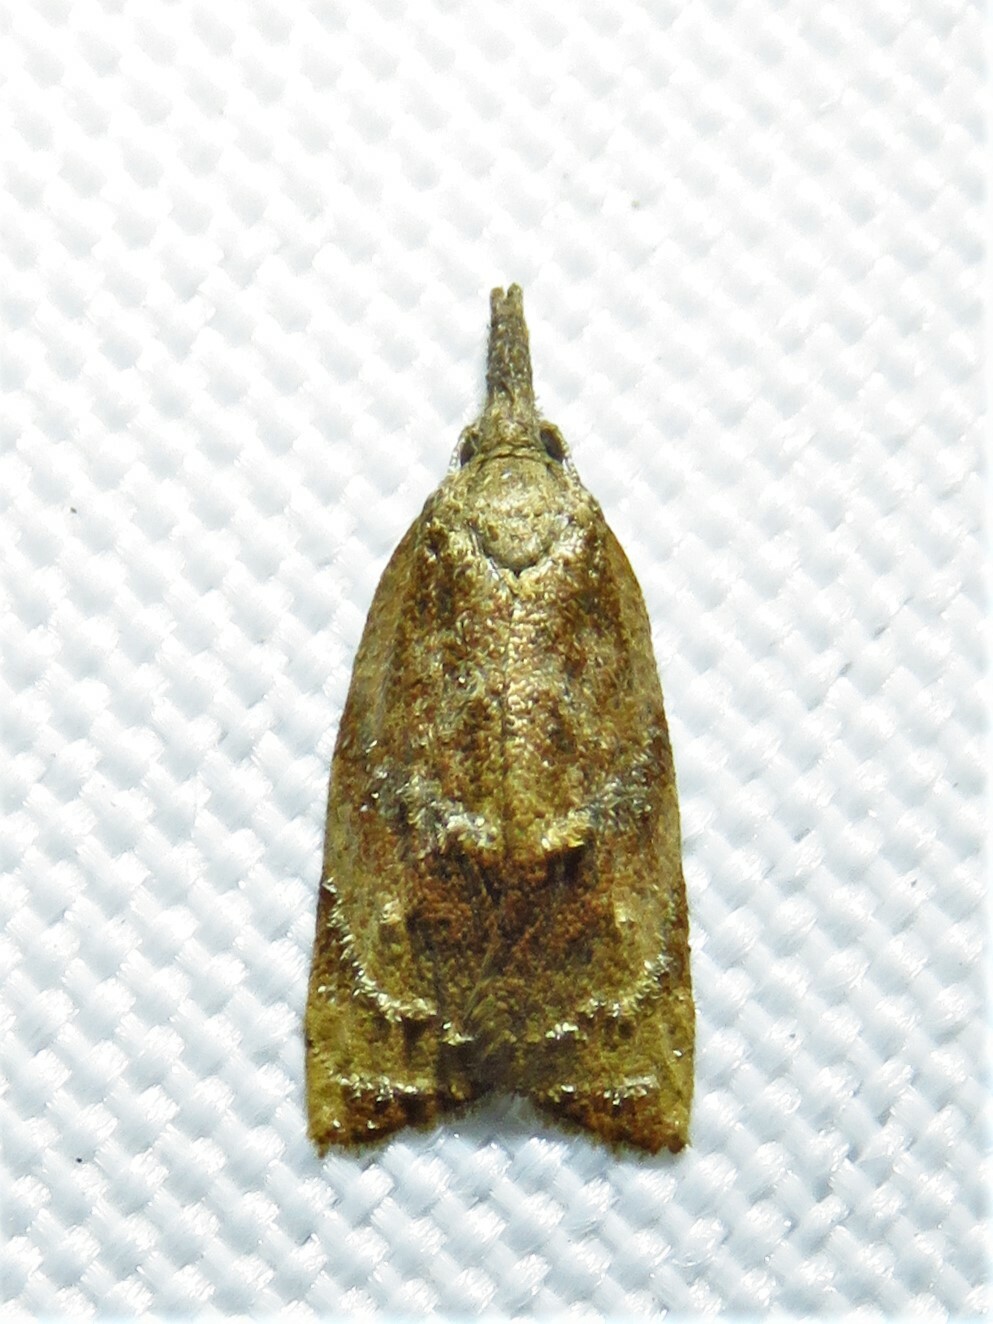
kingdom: Animalia
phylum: Arthropoda
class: Insecta
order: Lepidoptera
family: Tortricidae
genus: Platynota
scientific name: Platynota stultana
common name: Omnivorous leafroller
